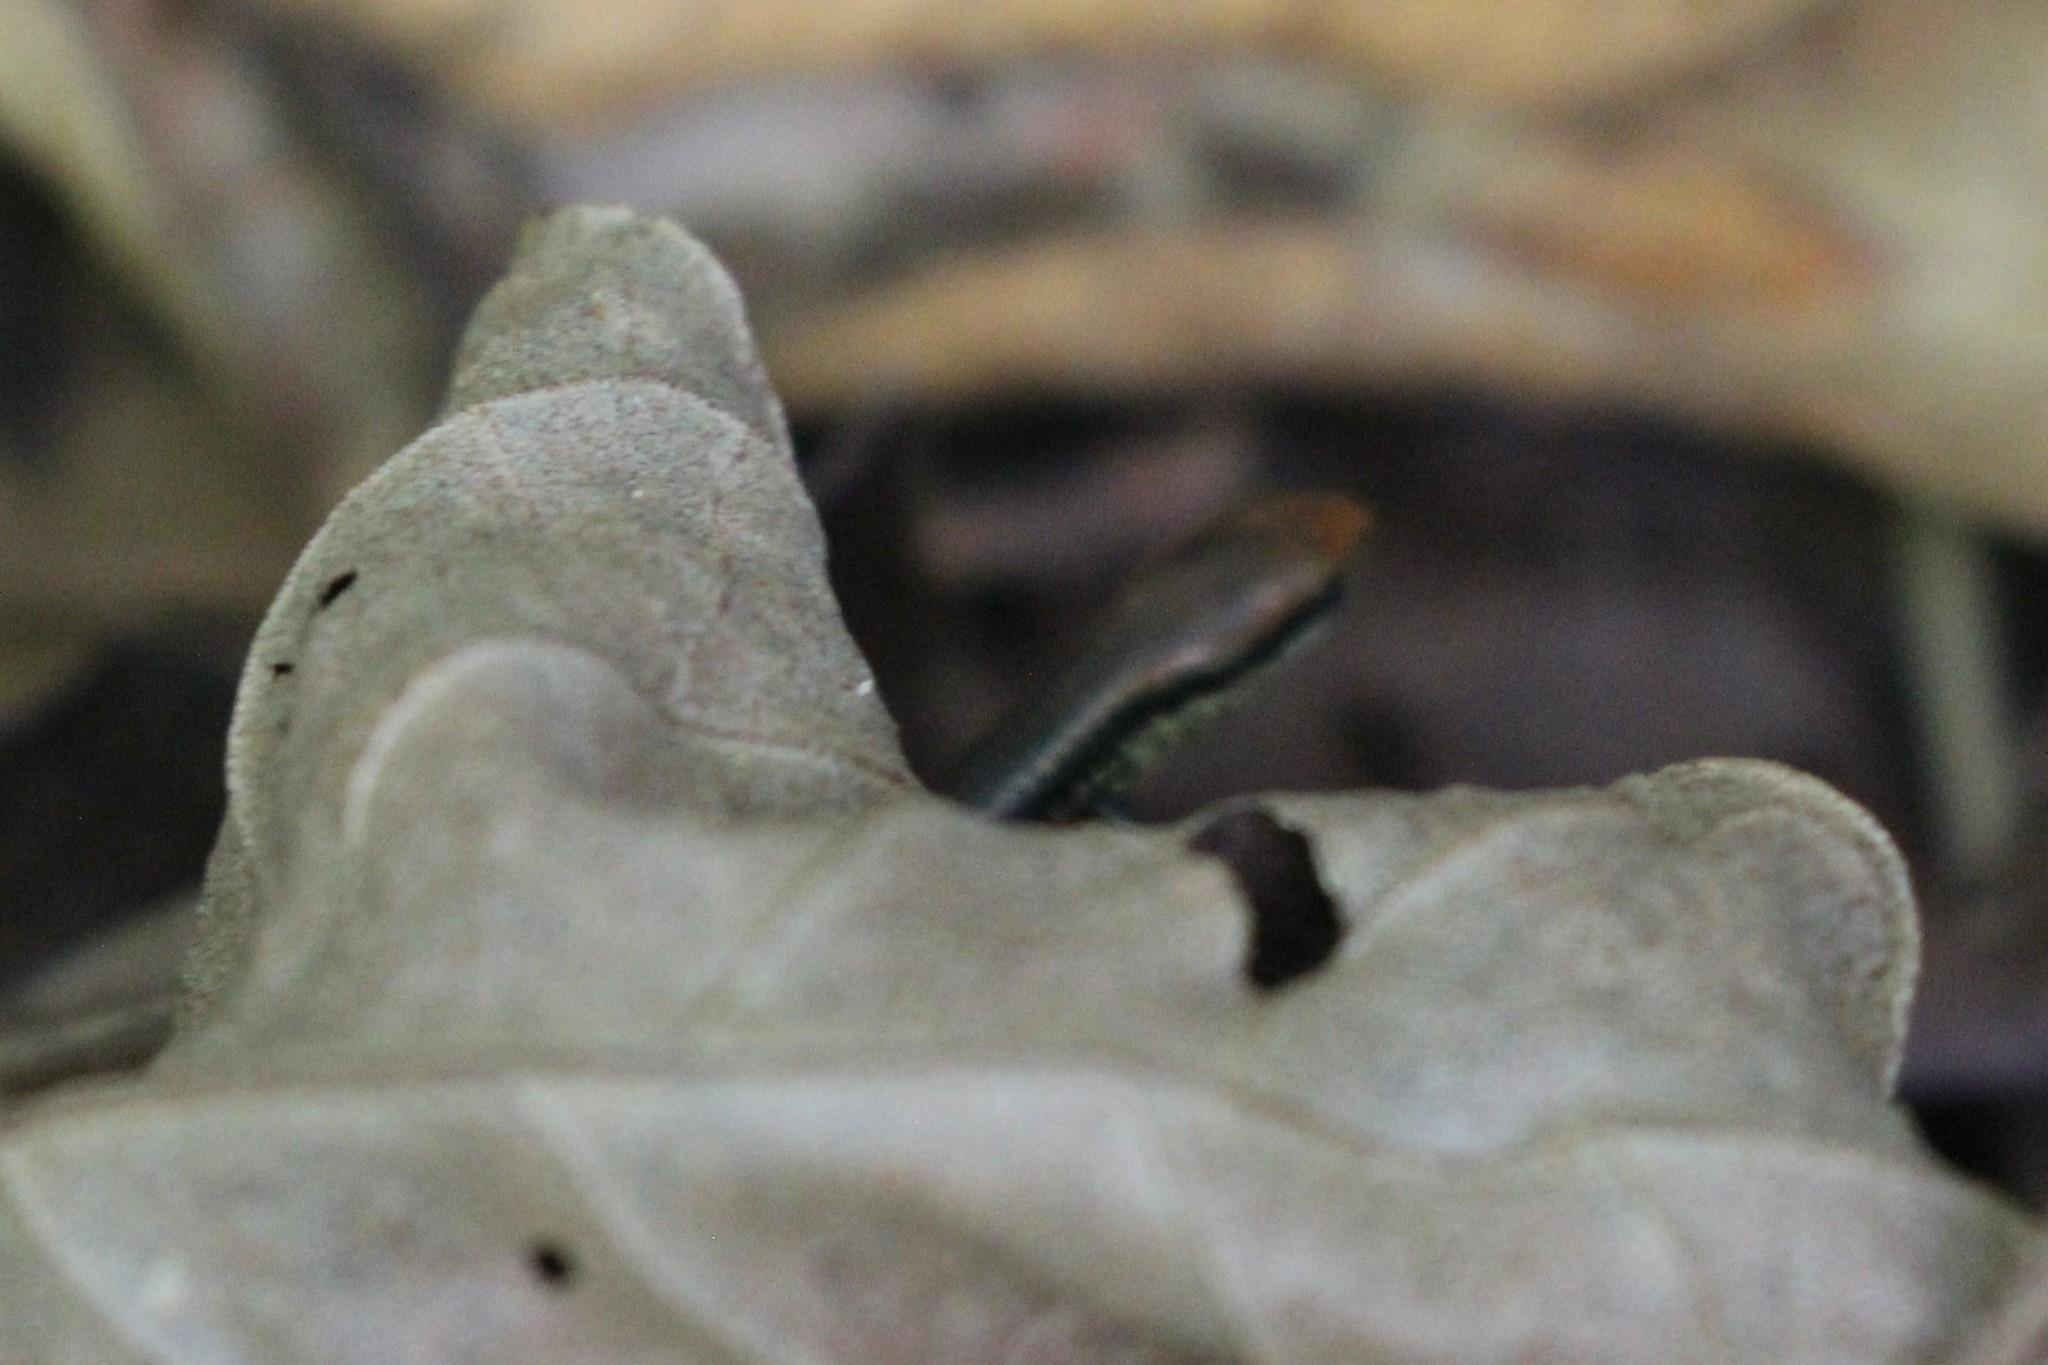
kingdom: Animalia
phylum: Chordata
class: Squamata
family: Scincidae
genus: Scincella
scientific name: Scincella cherriei
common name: Brown forest skink
